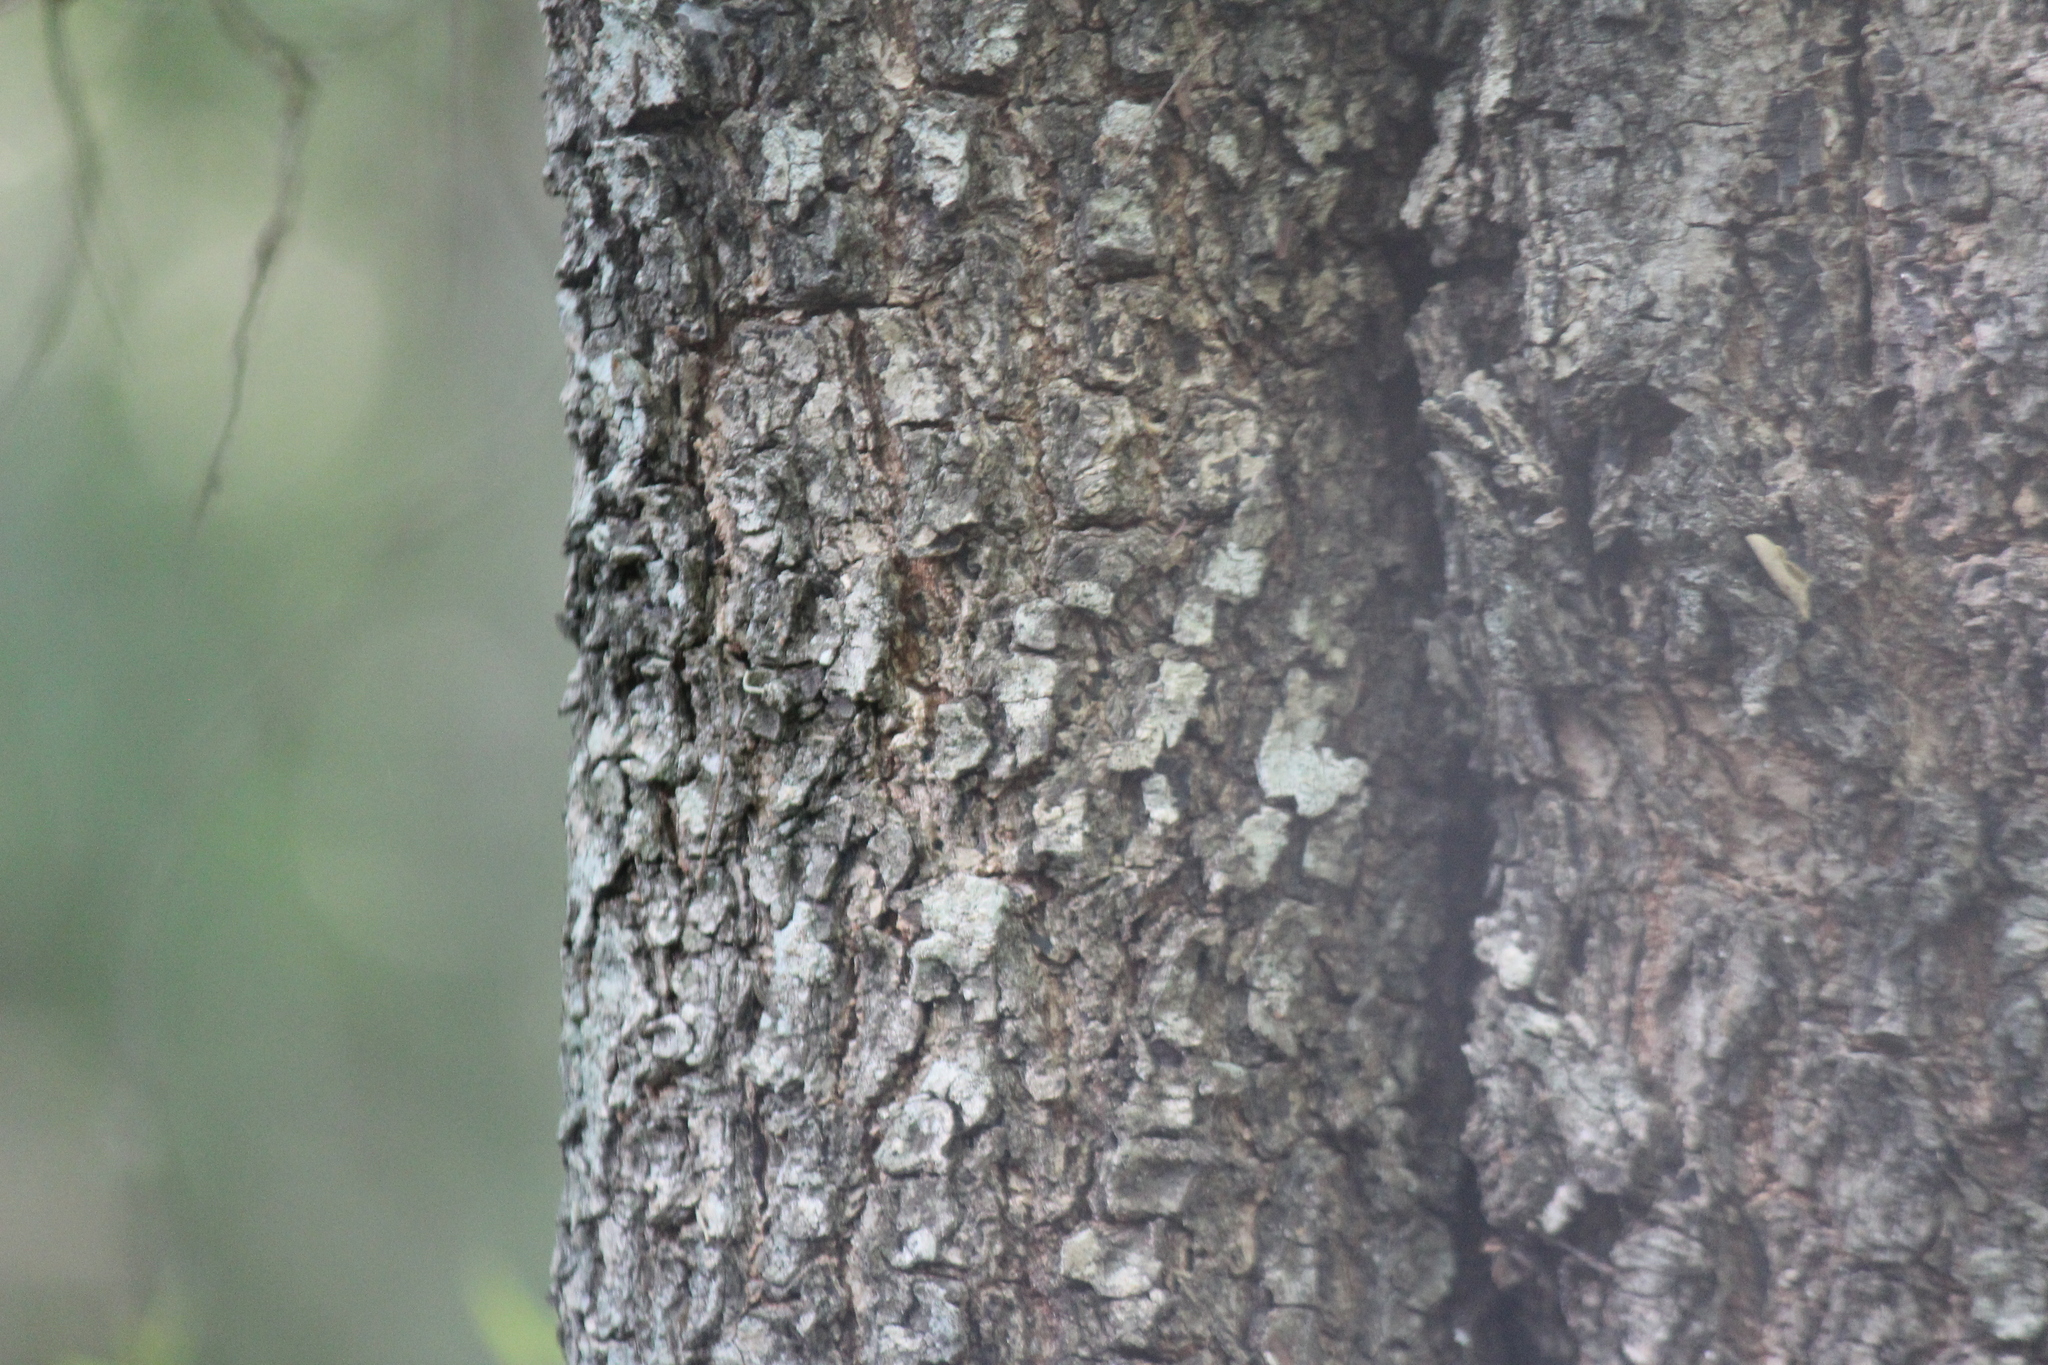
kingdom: Plantae
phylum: Tracheophyta
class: Magnoliopsida
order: Malpighiales
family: Euphorbiaceae
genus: Spirostachys
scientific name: Spirostachys africana
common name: Tamboti
